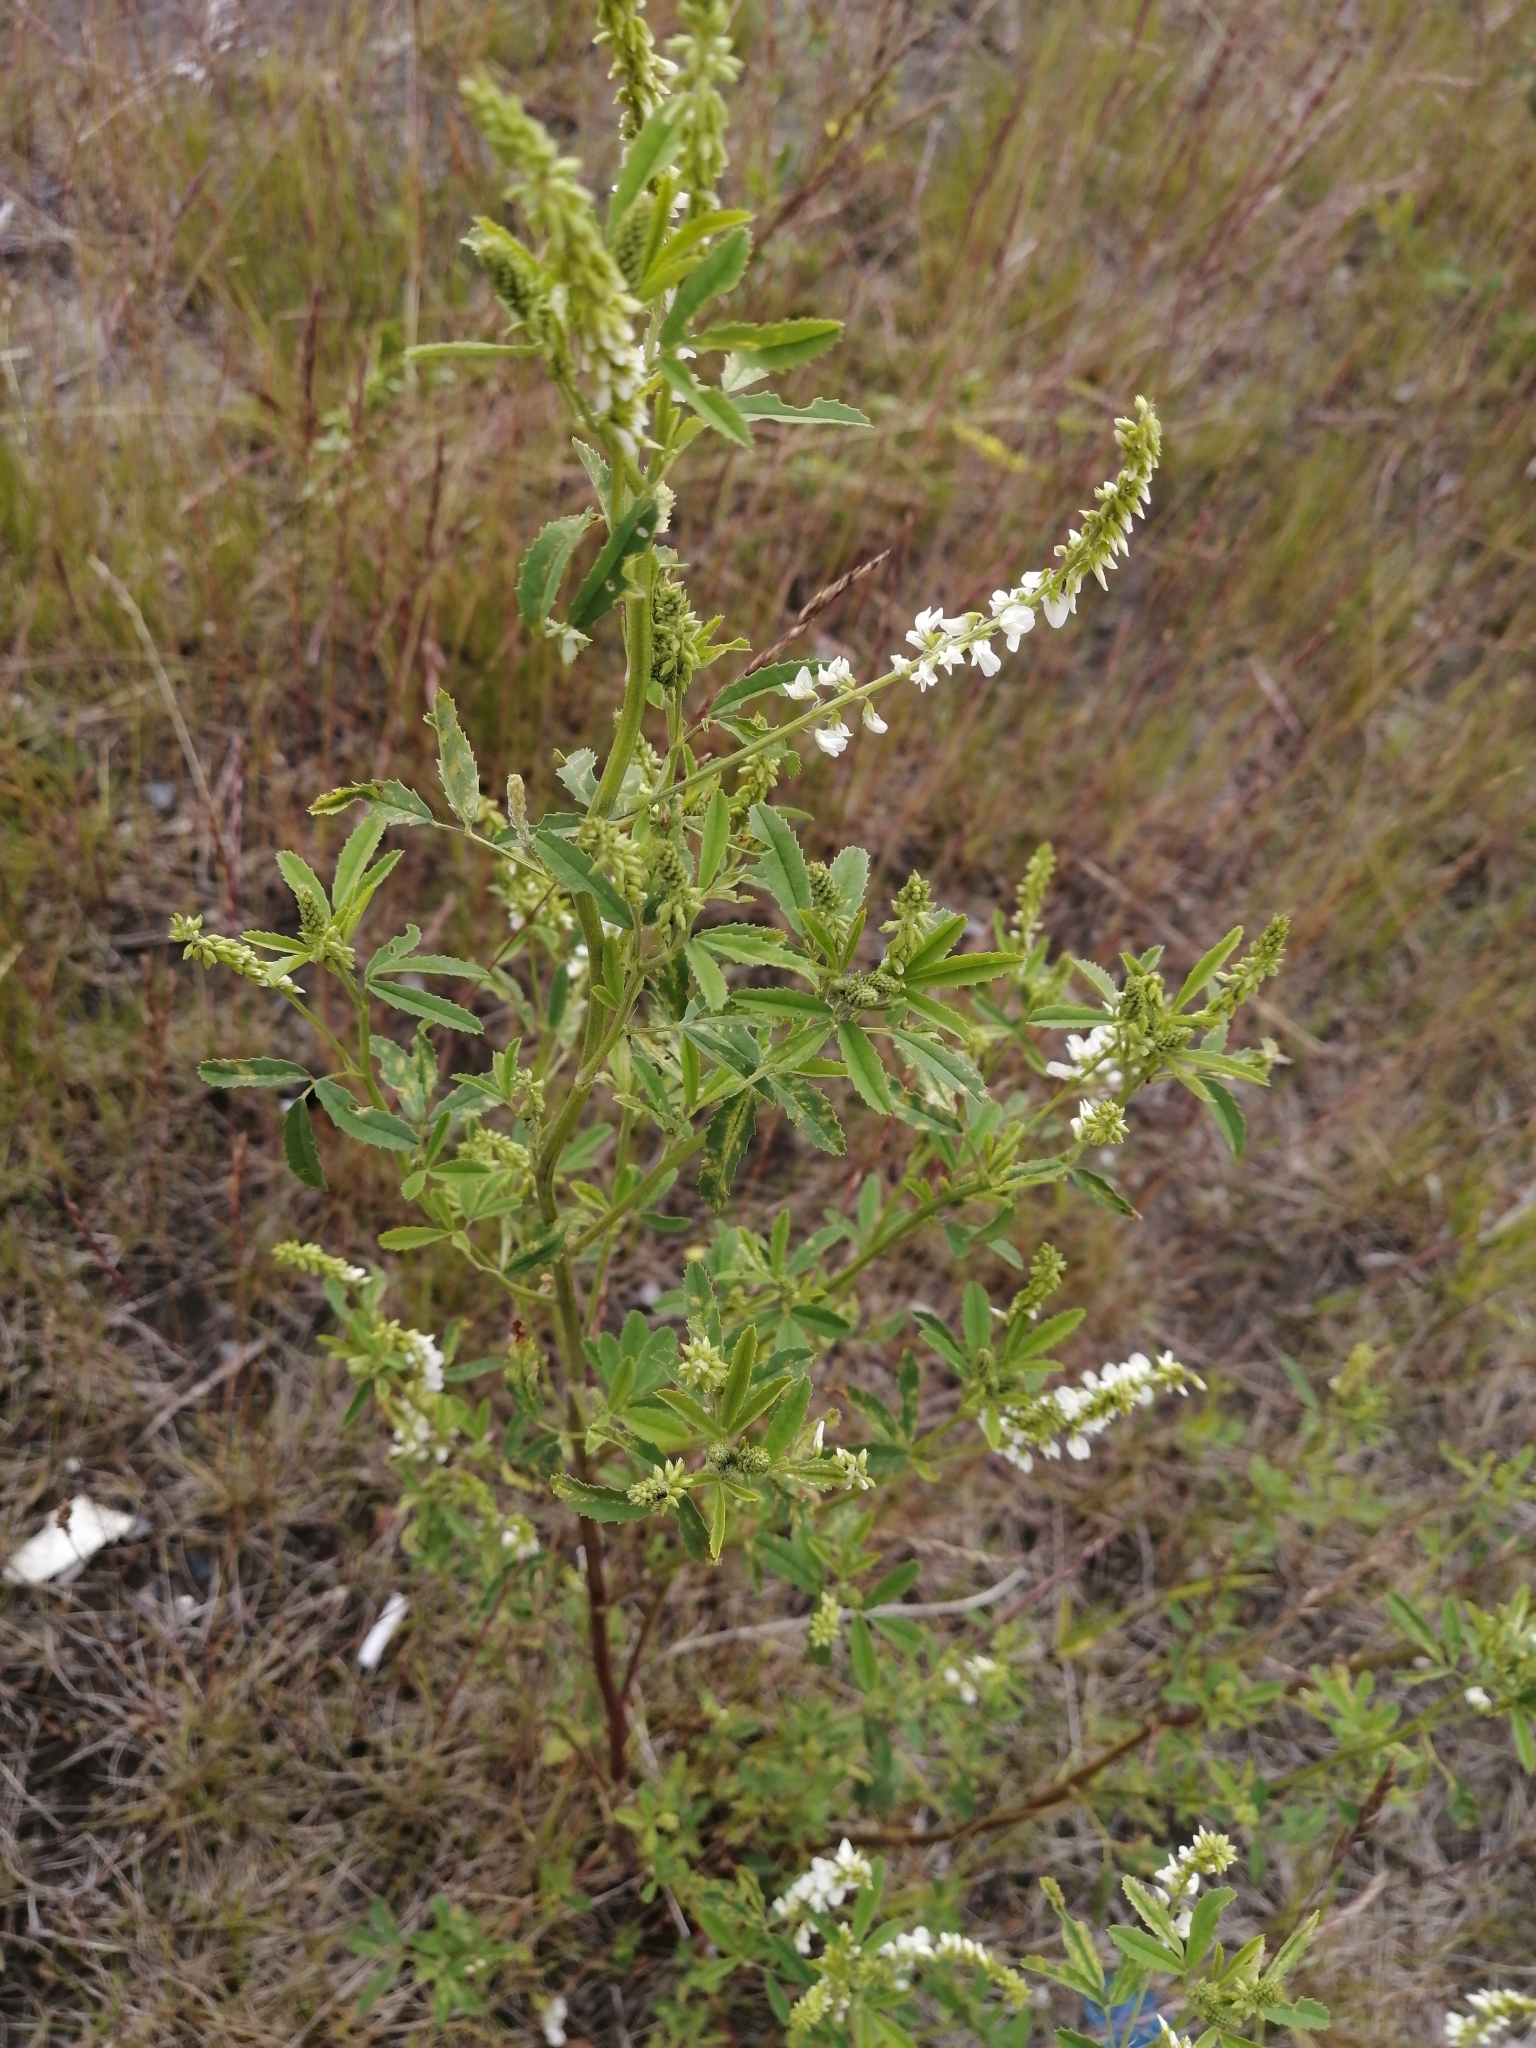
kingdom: Plantae
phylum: Tracheophyta
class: Magnoliopsida
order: Fabales
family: Fabaceae
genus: Melilotus
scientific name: Melilotus albus
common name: White melilot
